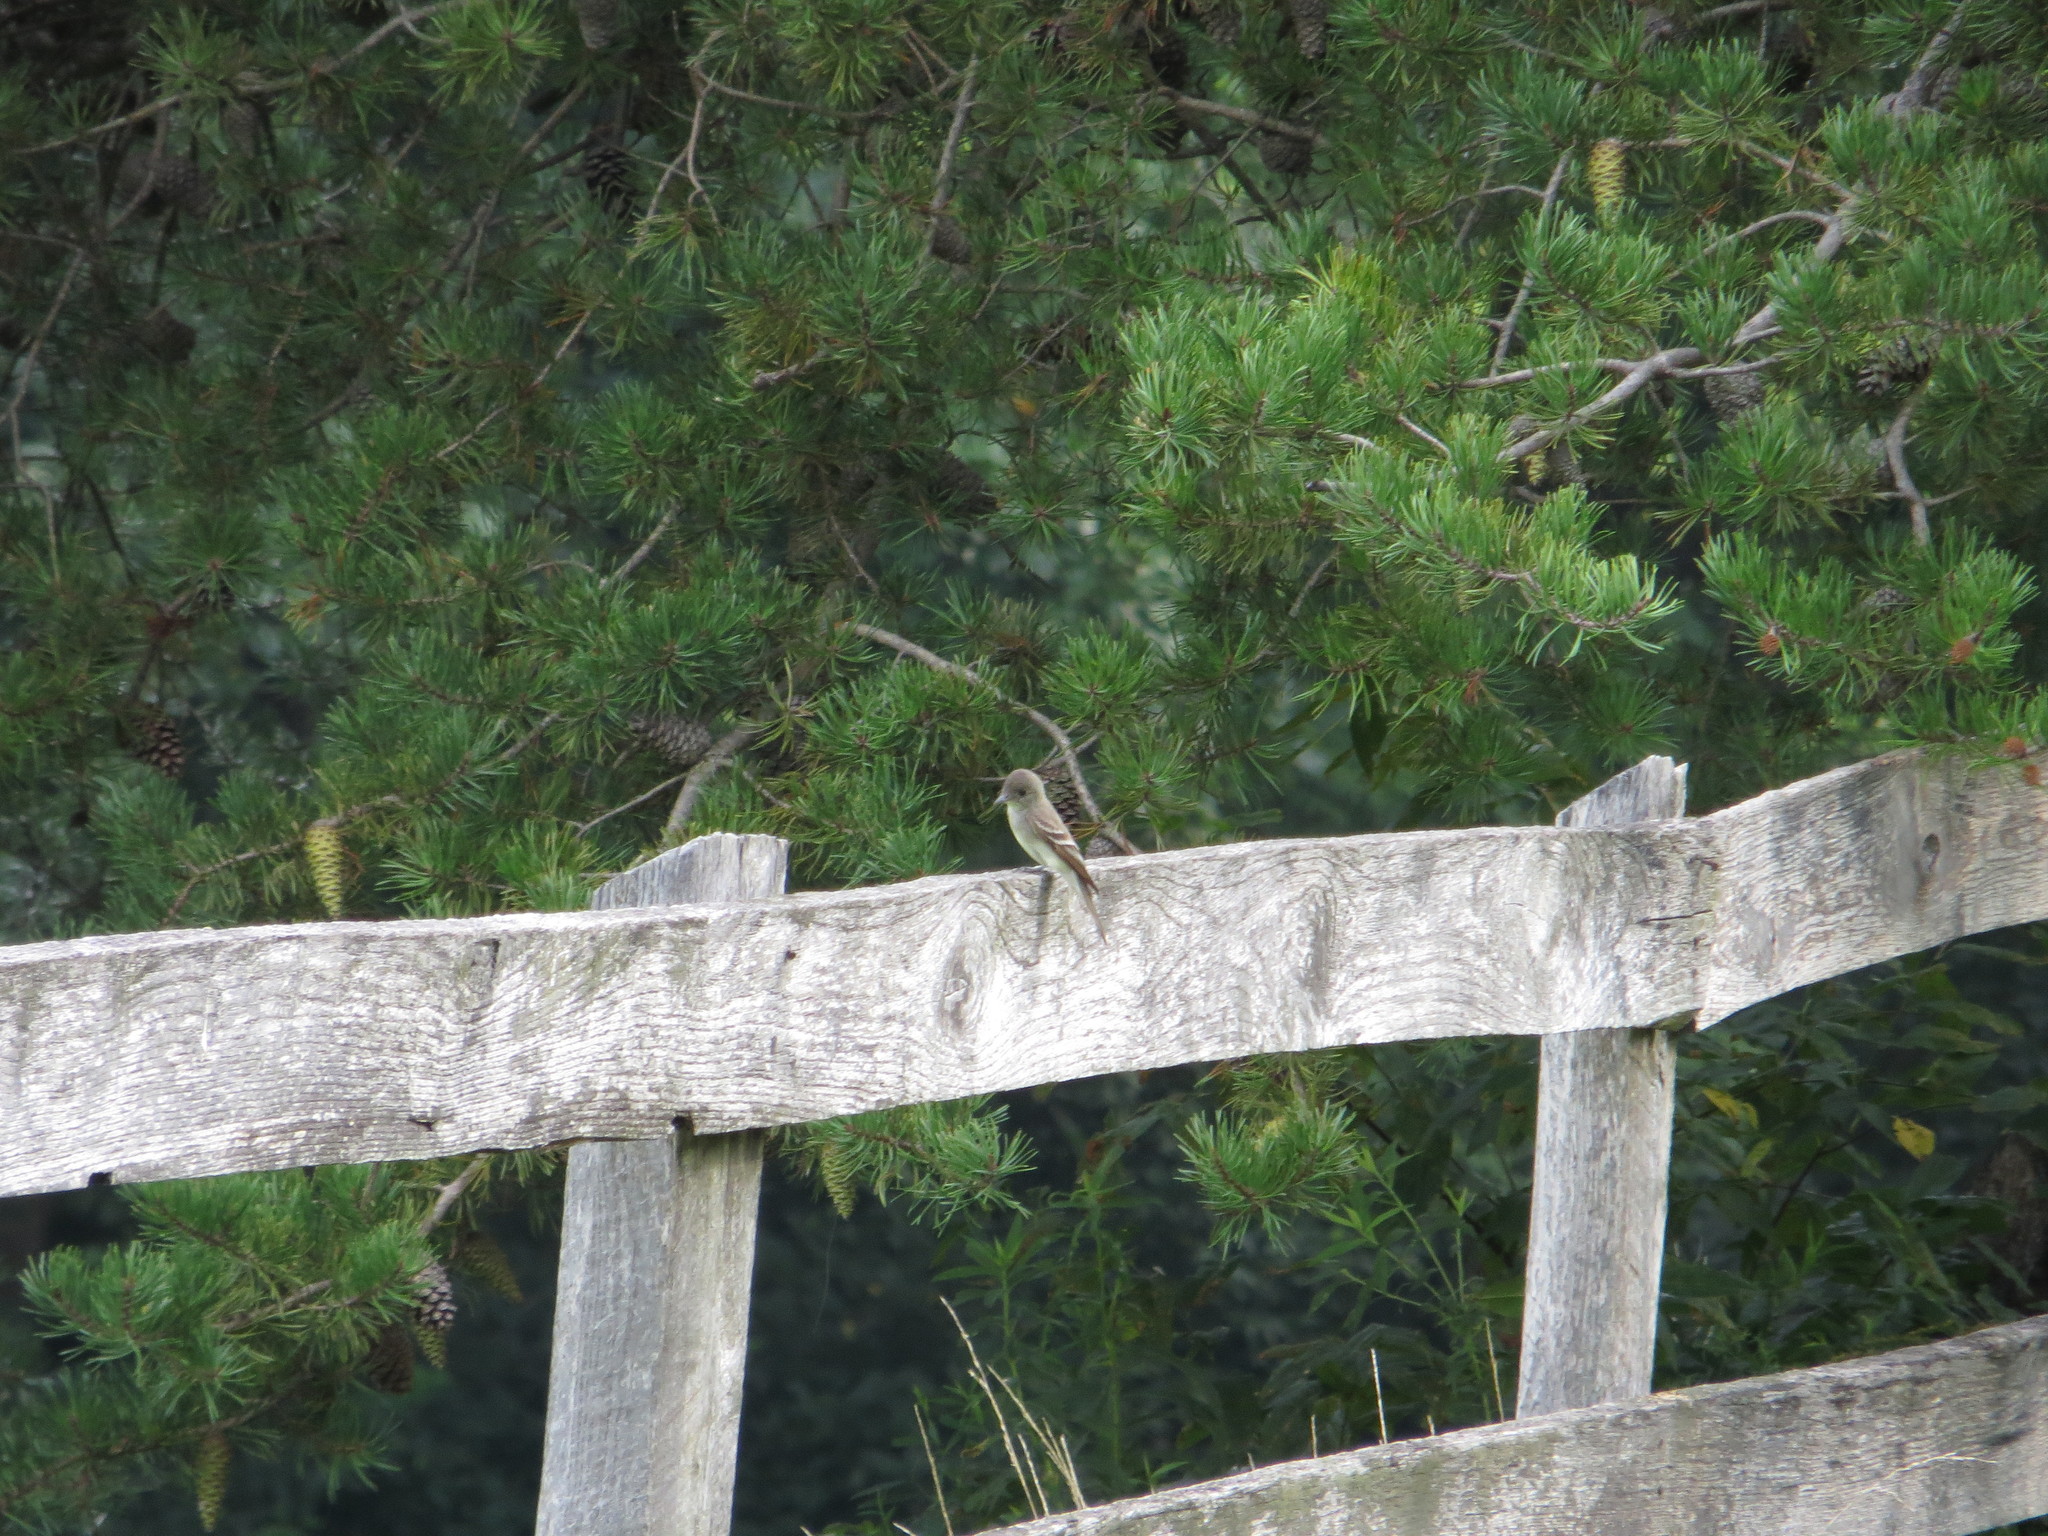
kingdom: Animalia
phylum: Chordata
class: Aves
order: Passeriformes
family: Tyrannidae
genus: Contopus
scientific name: Contopus virens
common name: Eastern wood-pewee
